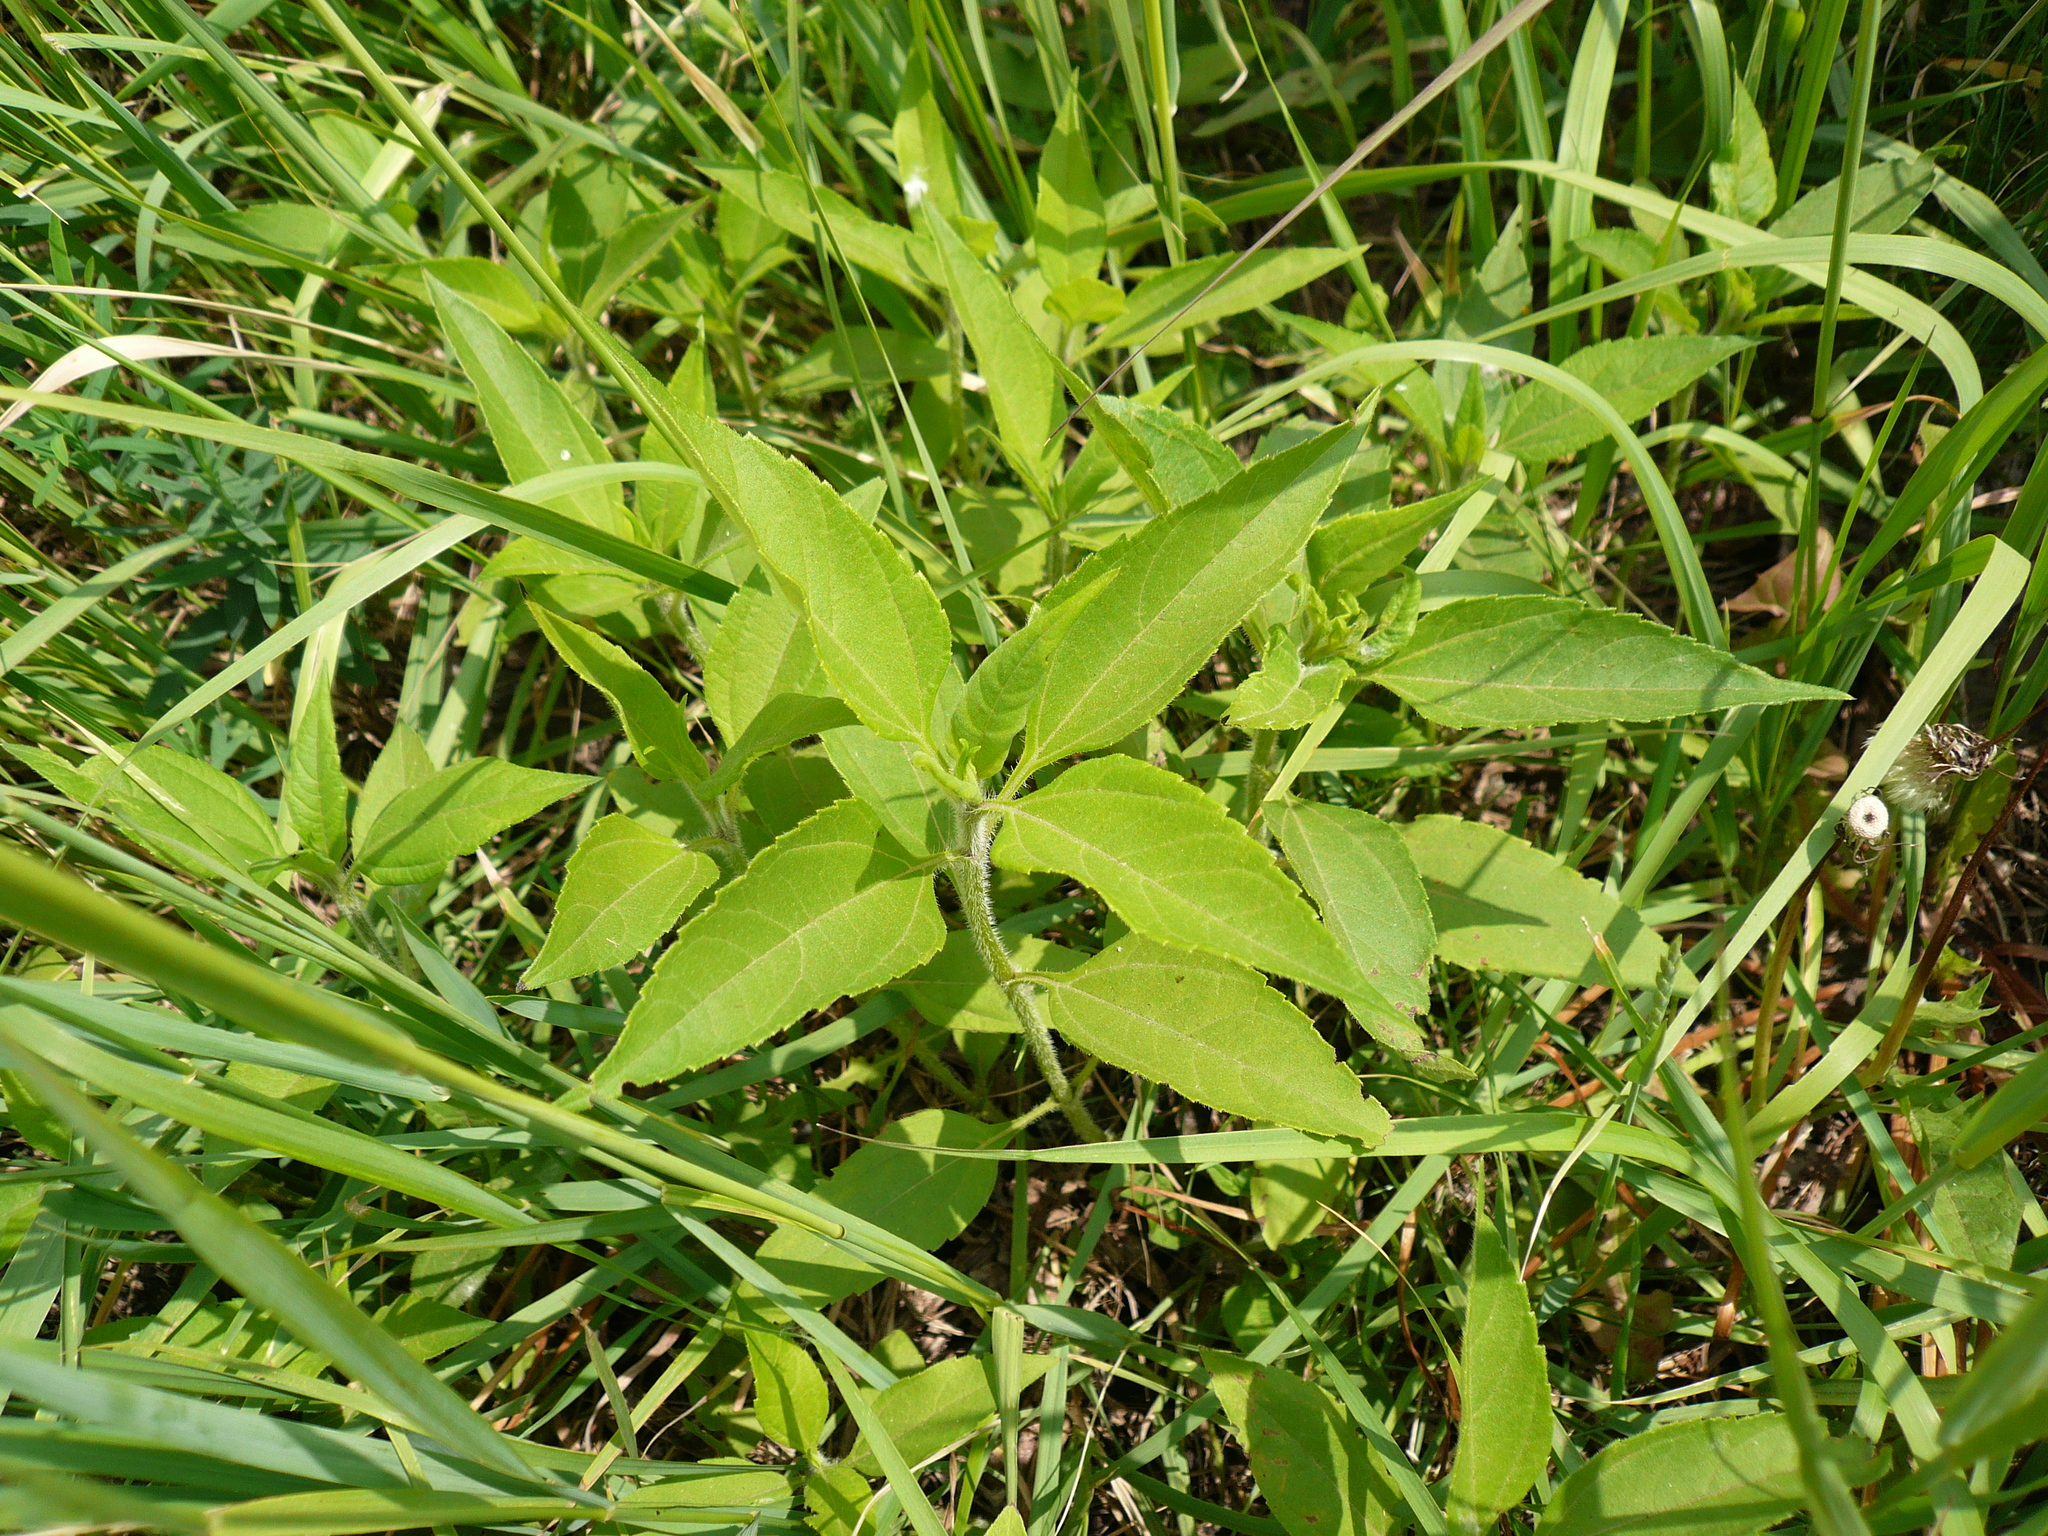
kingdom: Plantae
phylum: Tracheophyta
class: Magnoliopsida
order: Asterales
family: Asteraceae
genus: Helianthus
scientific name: Helianthus tuberosus
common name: Jerusalem artichoke
